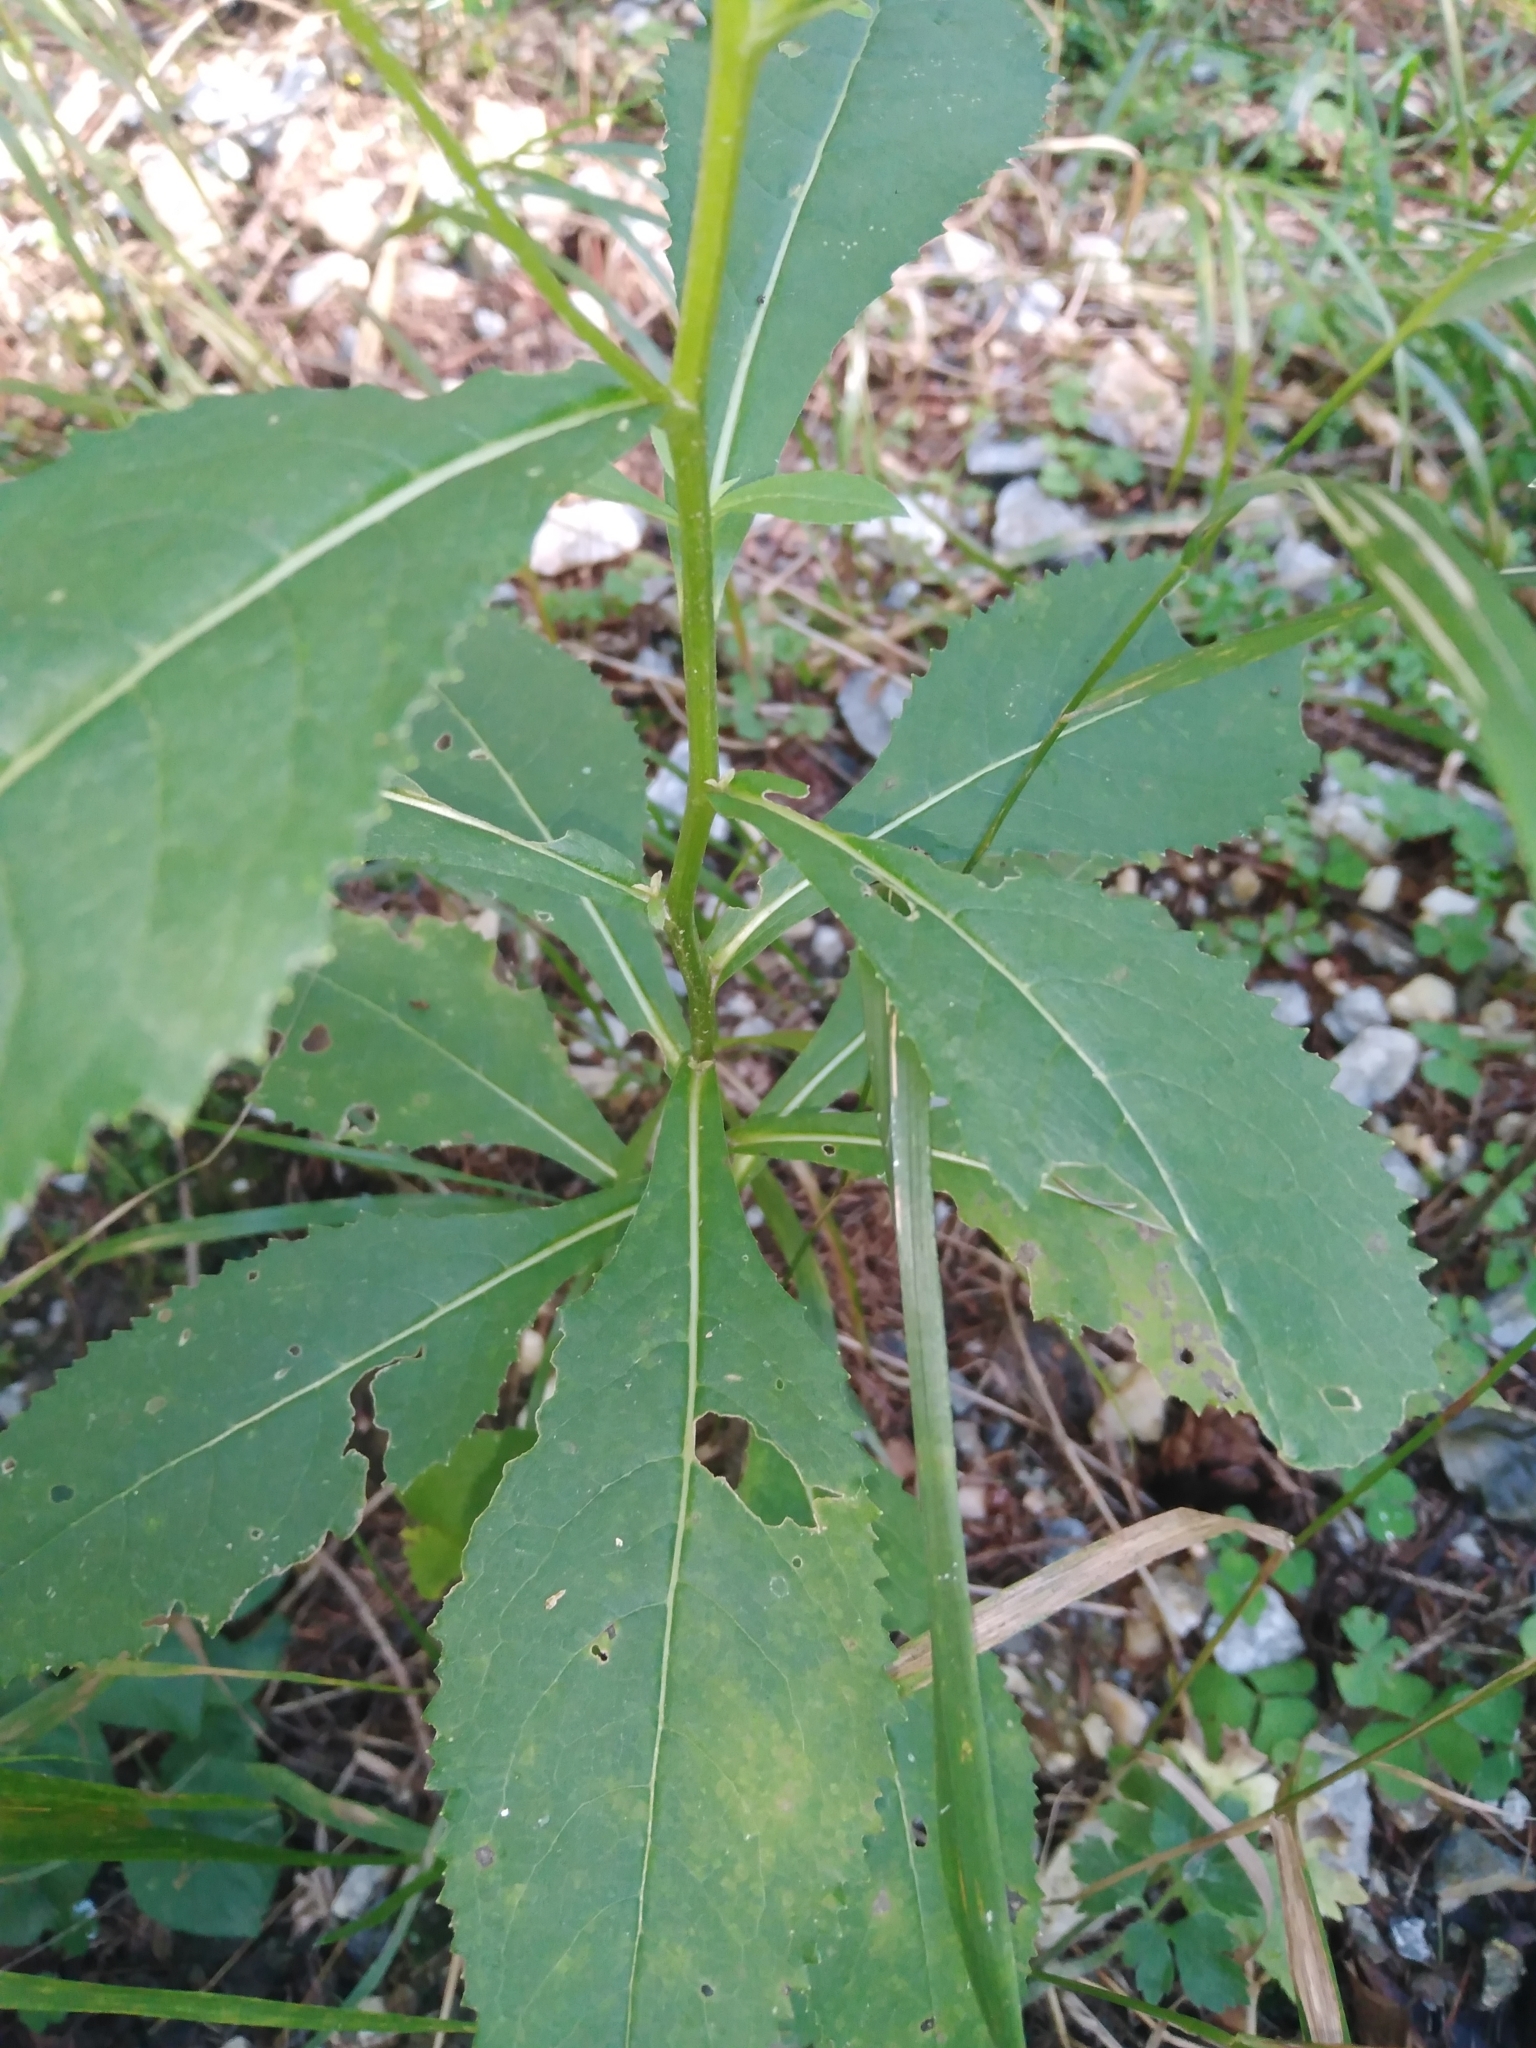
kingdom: Plantae
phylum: Tracheophyta
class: Magnoliopsida
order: Asterales
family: Asteraceae
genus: Senecio
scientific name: Senecio
